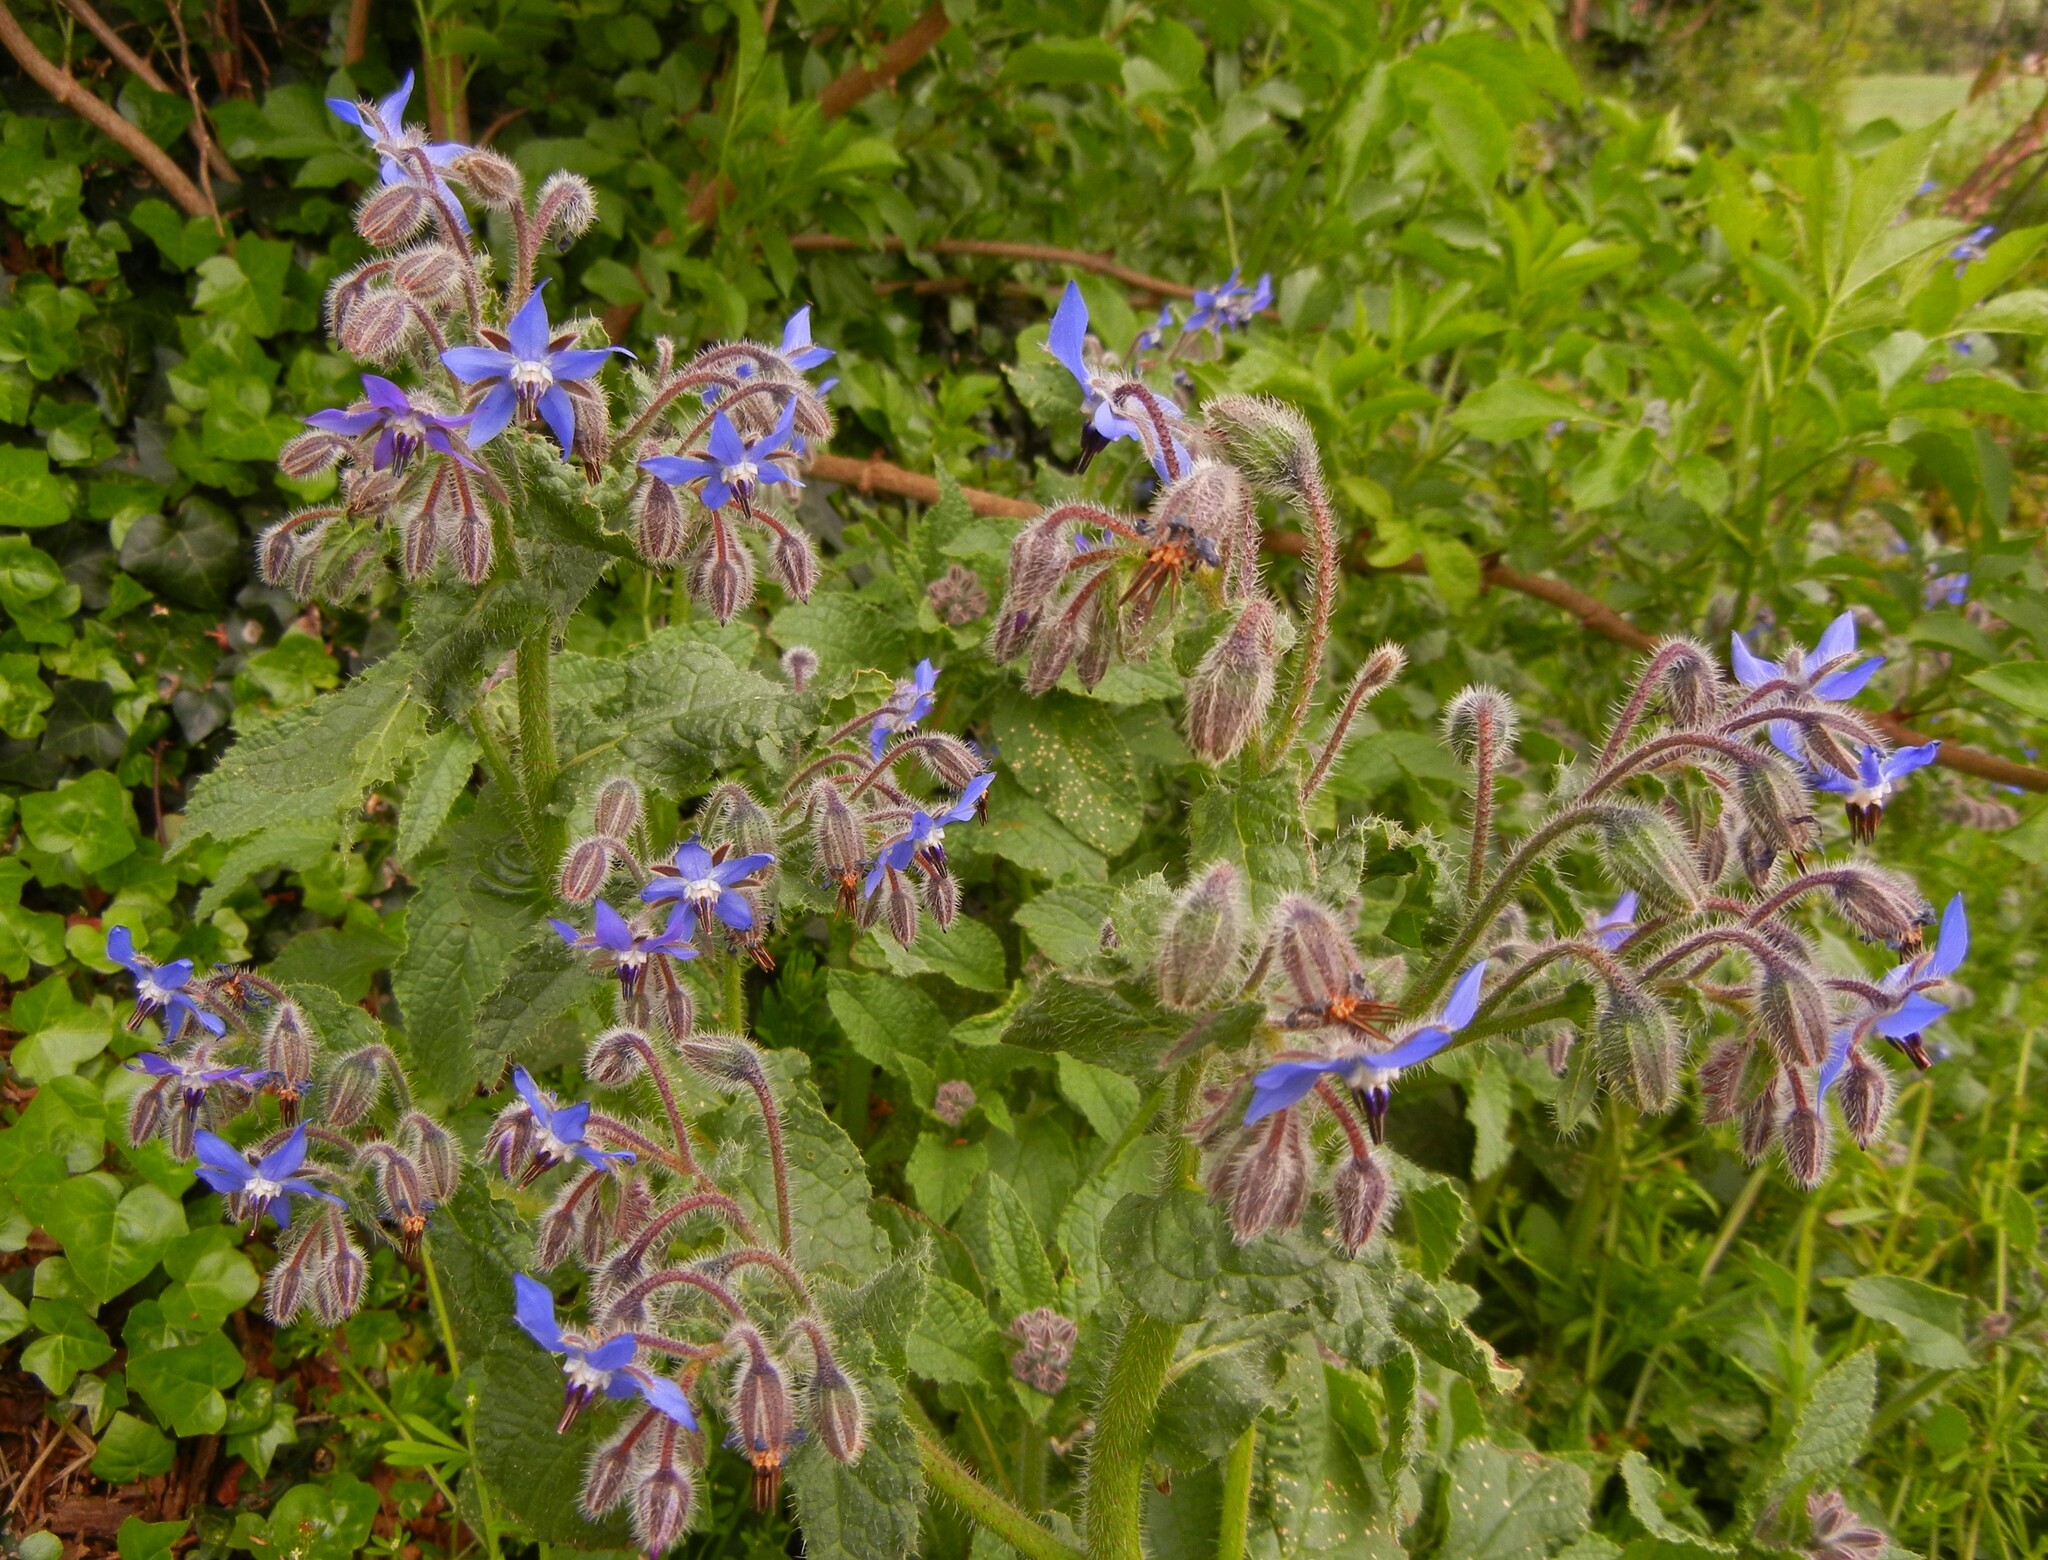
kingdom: Plantae
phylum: Tracheophyta
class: Magnoliopsida
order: Boraginales
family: Boraginaceae
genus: Borago
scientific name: Borago officinalis
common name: Borage
